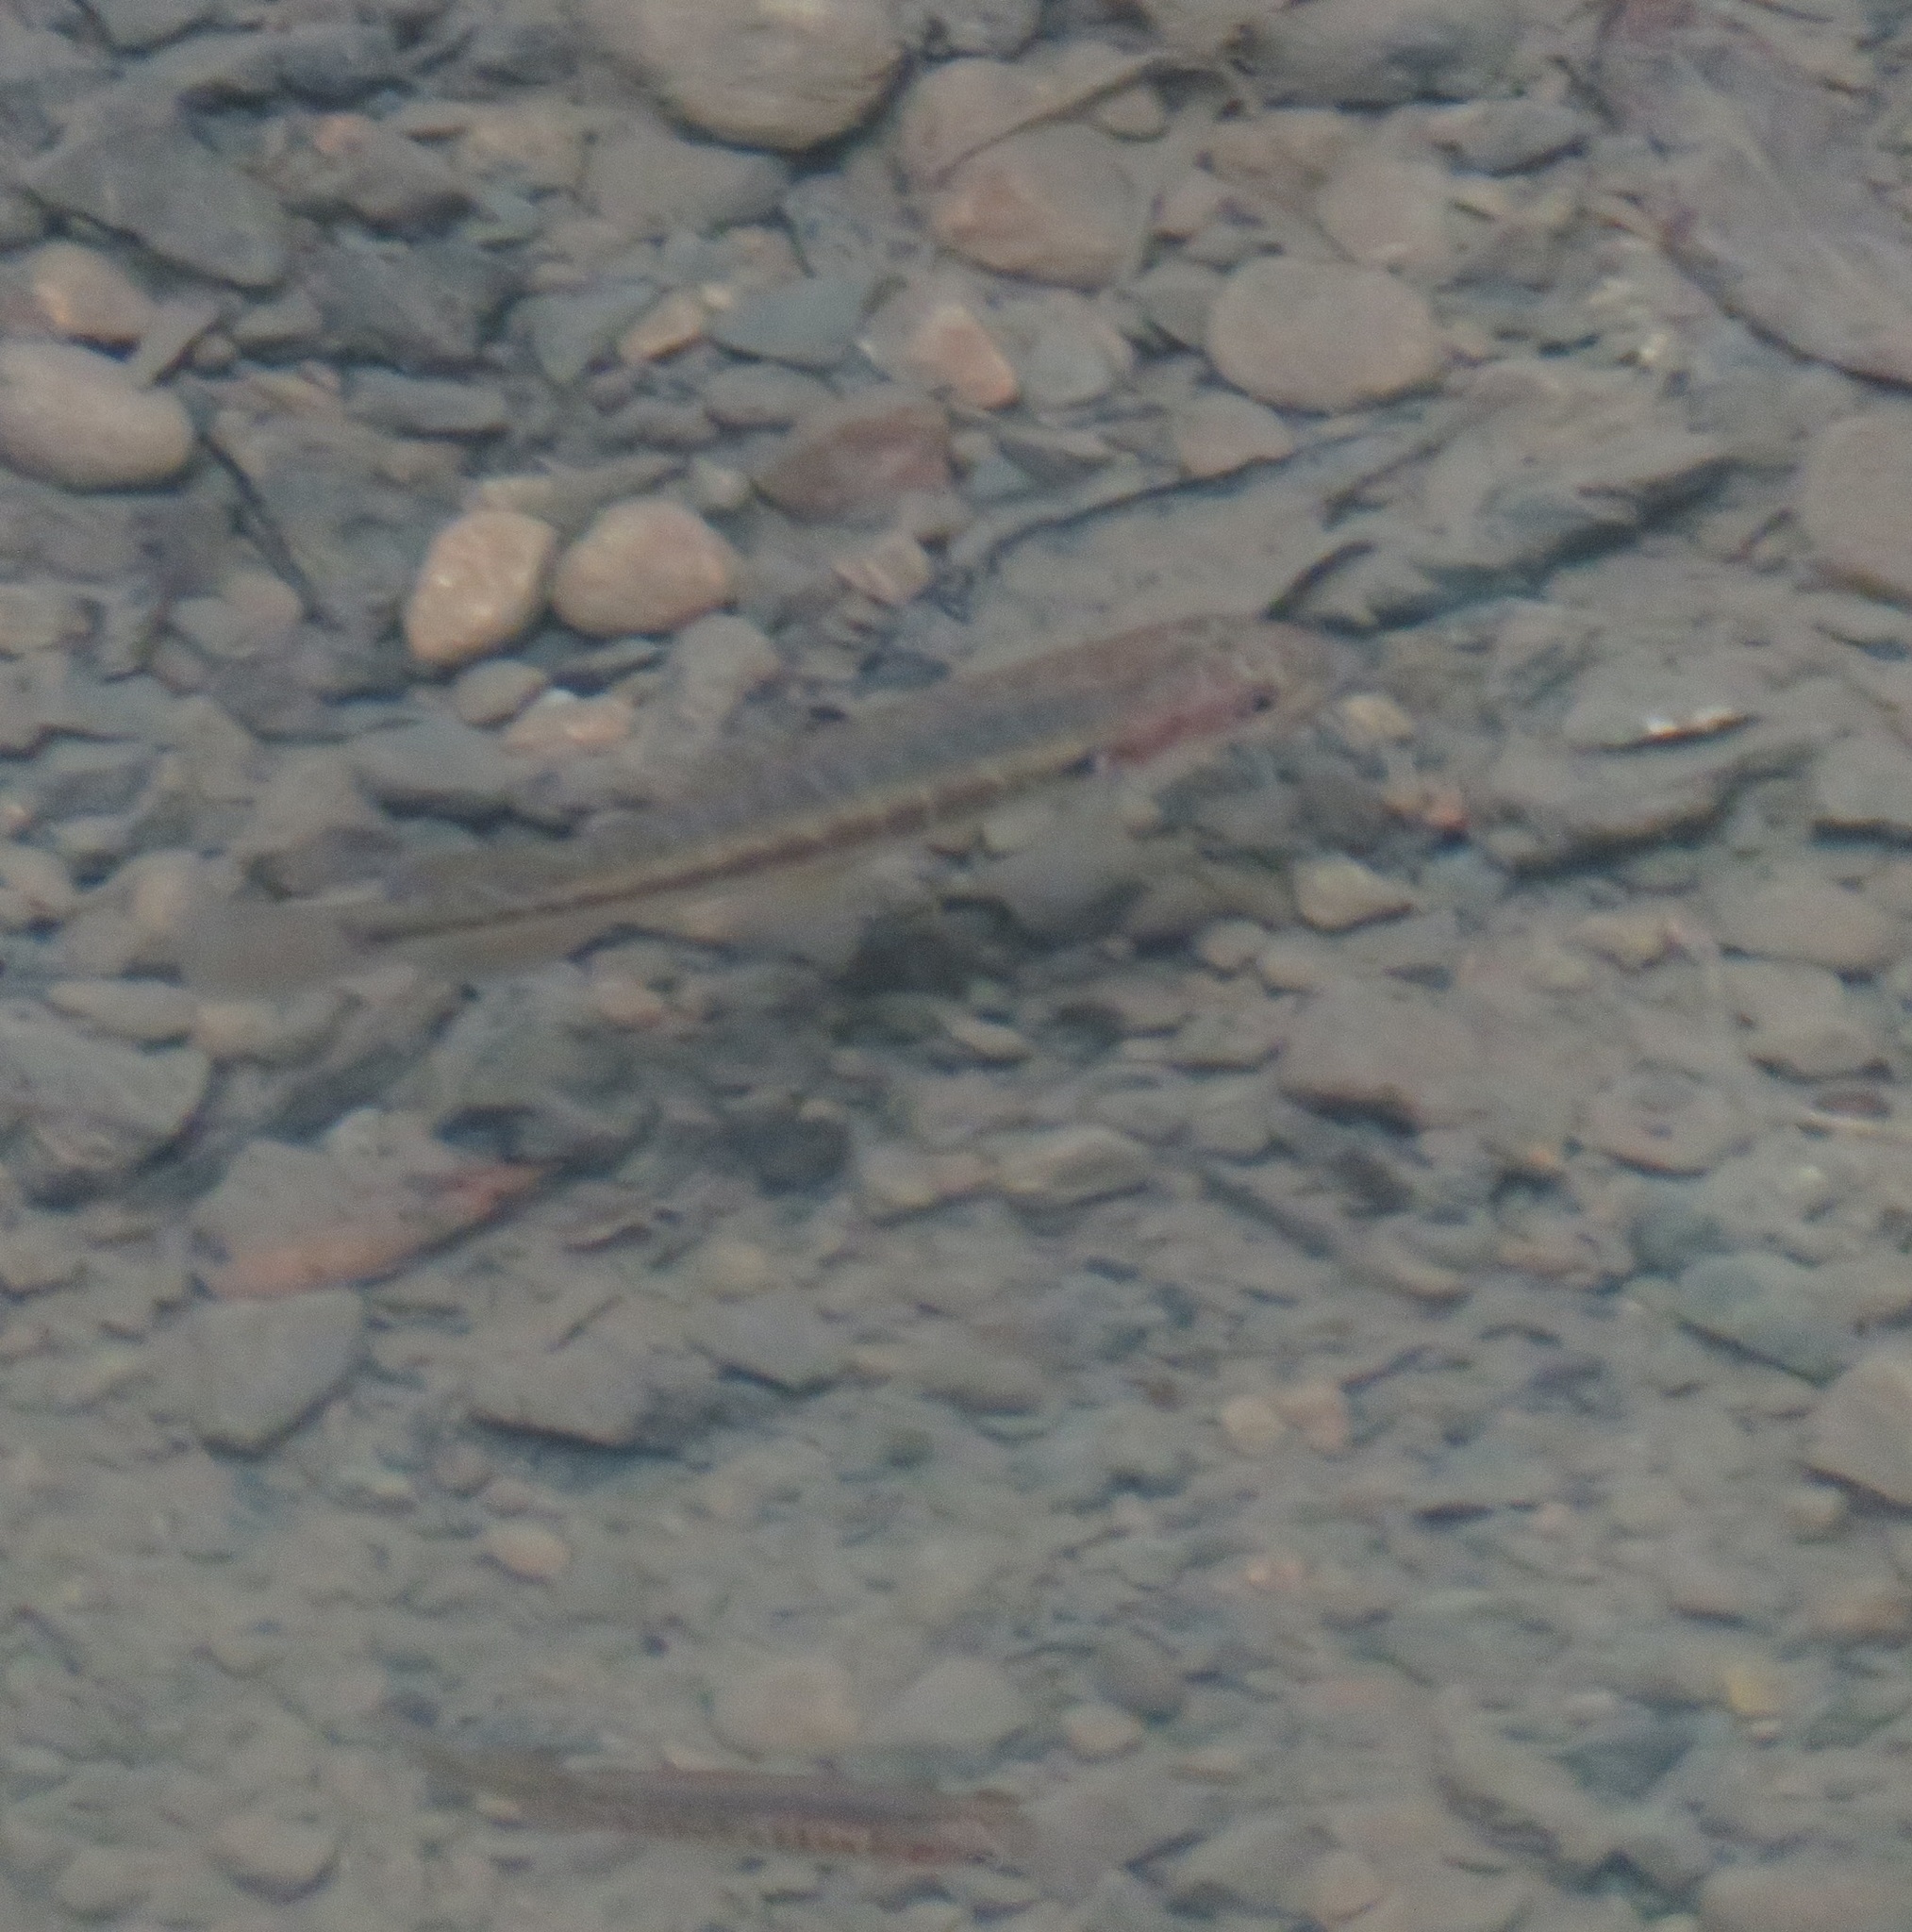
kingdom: Animalia
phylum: Chordata
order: Osmeriformes
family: Galaxiidae
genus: Galaxias
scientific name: Galaxias fasciatus
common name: Banded kokopu
